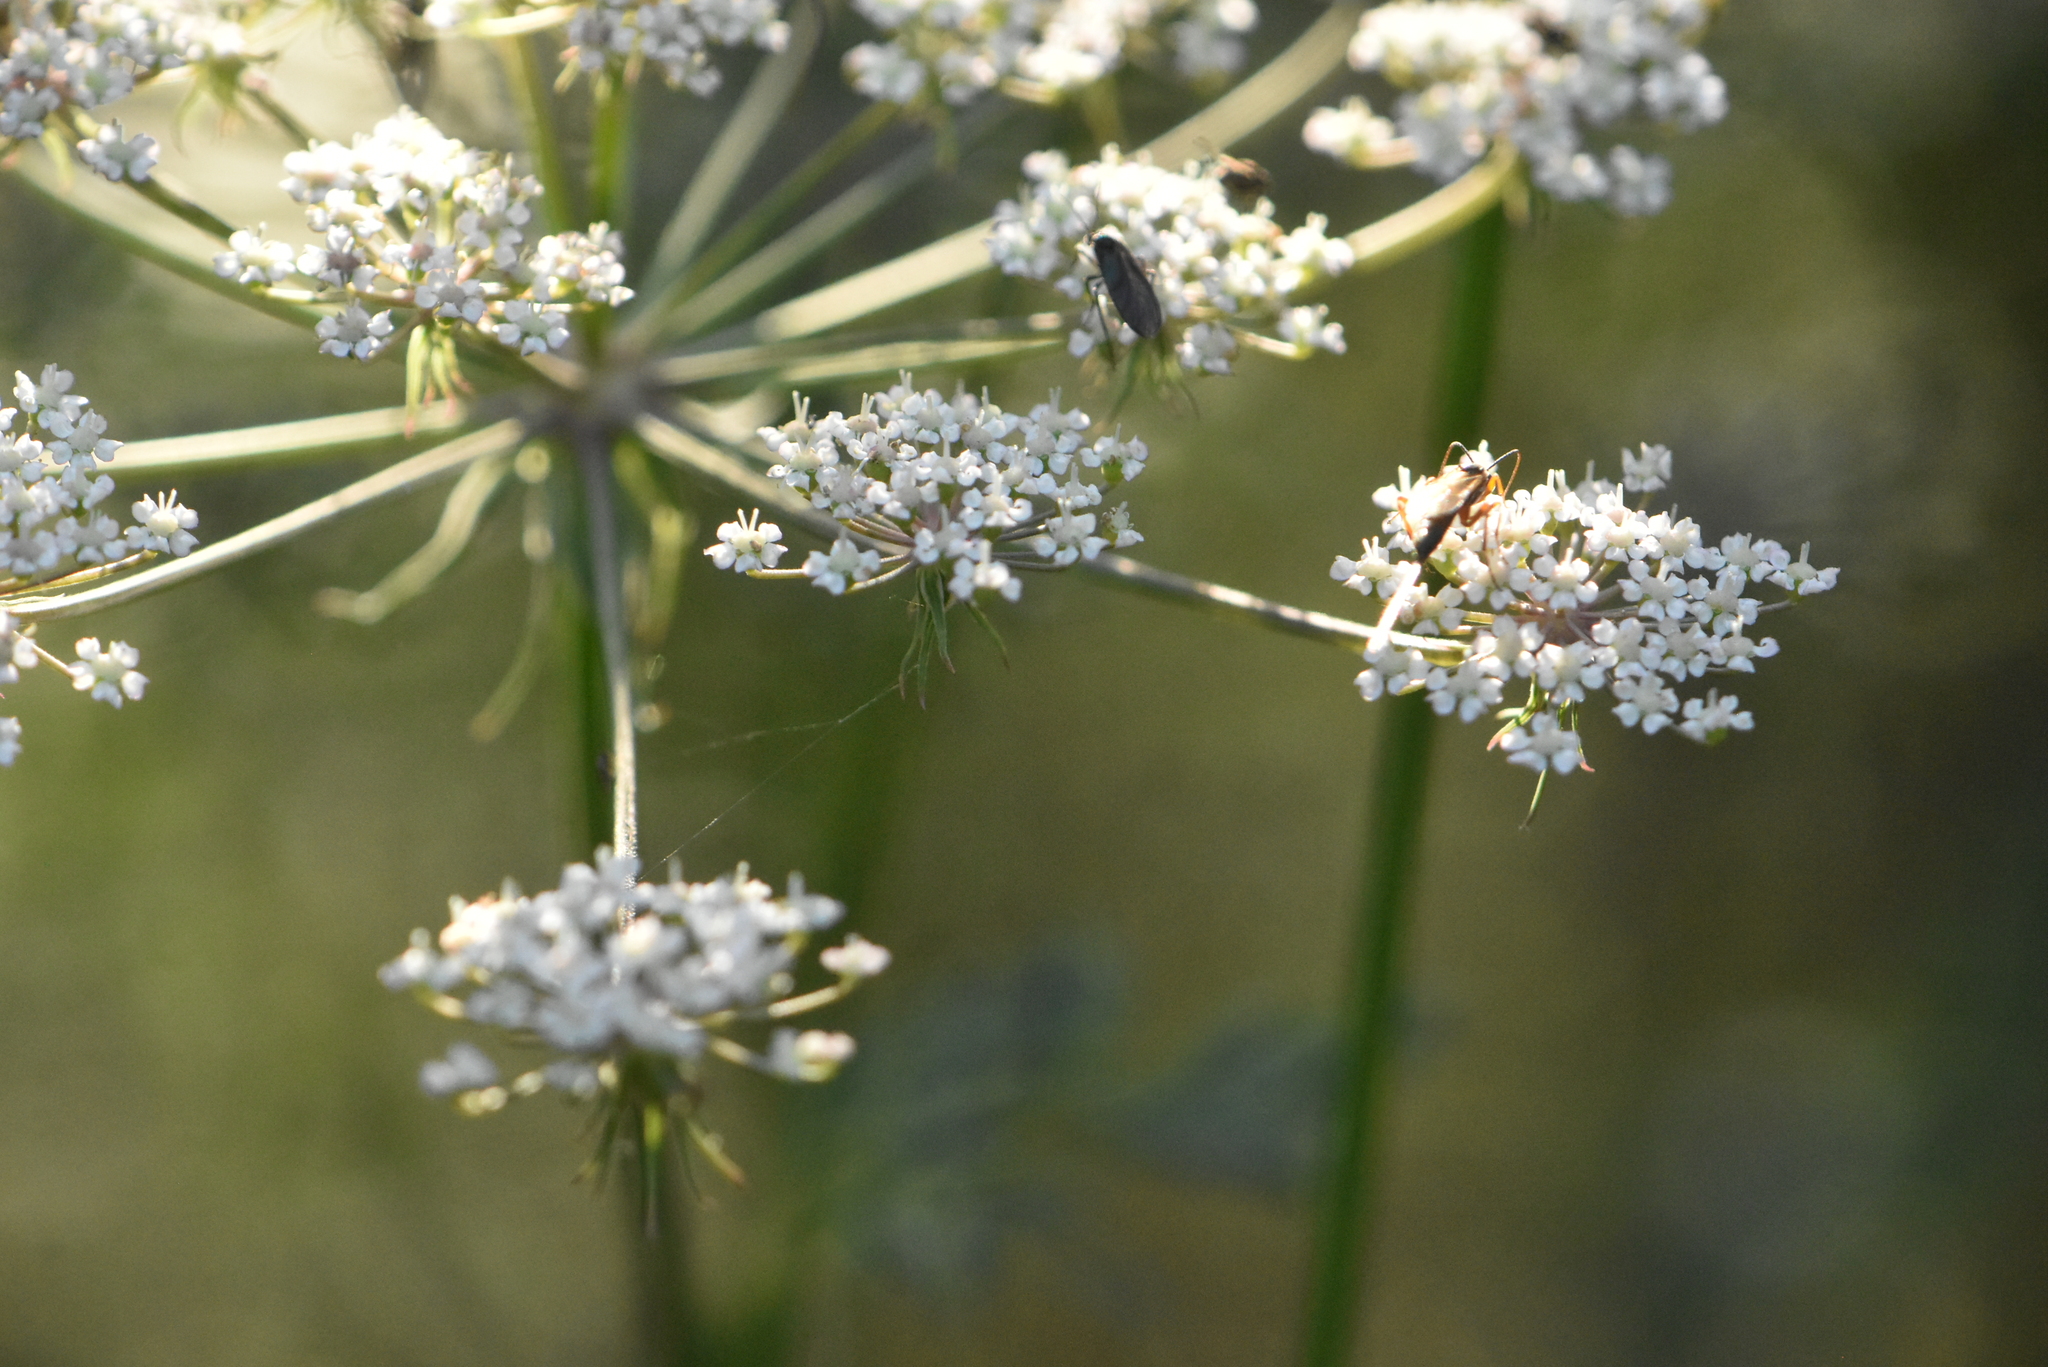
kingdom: Plantae
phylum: Tracheophyta
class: Magnoliopsida
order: Apiales
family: Apiaceae
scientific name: Apiaceae
